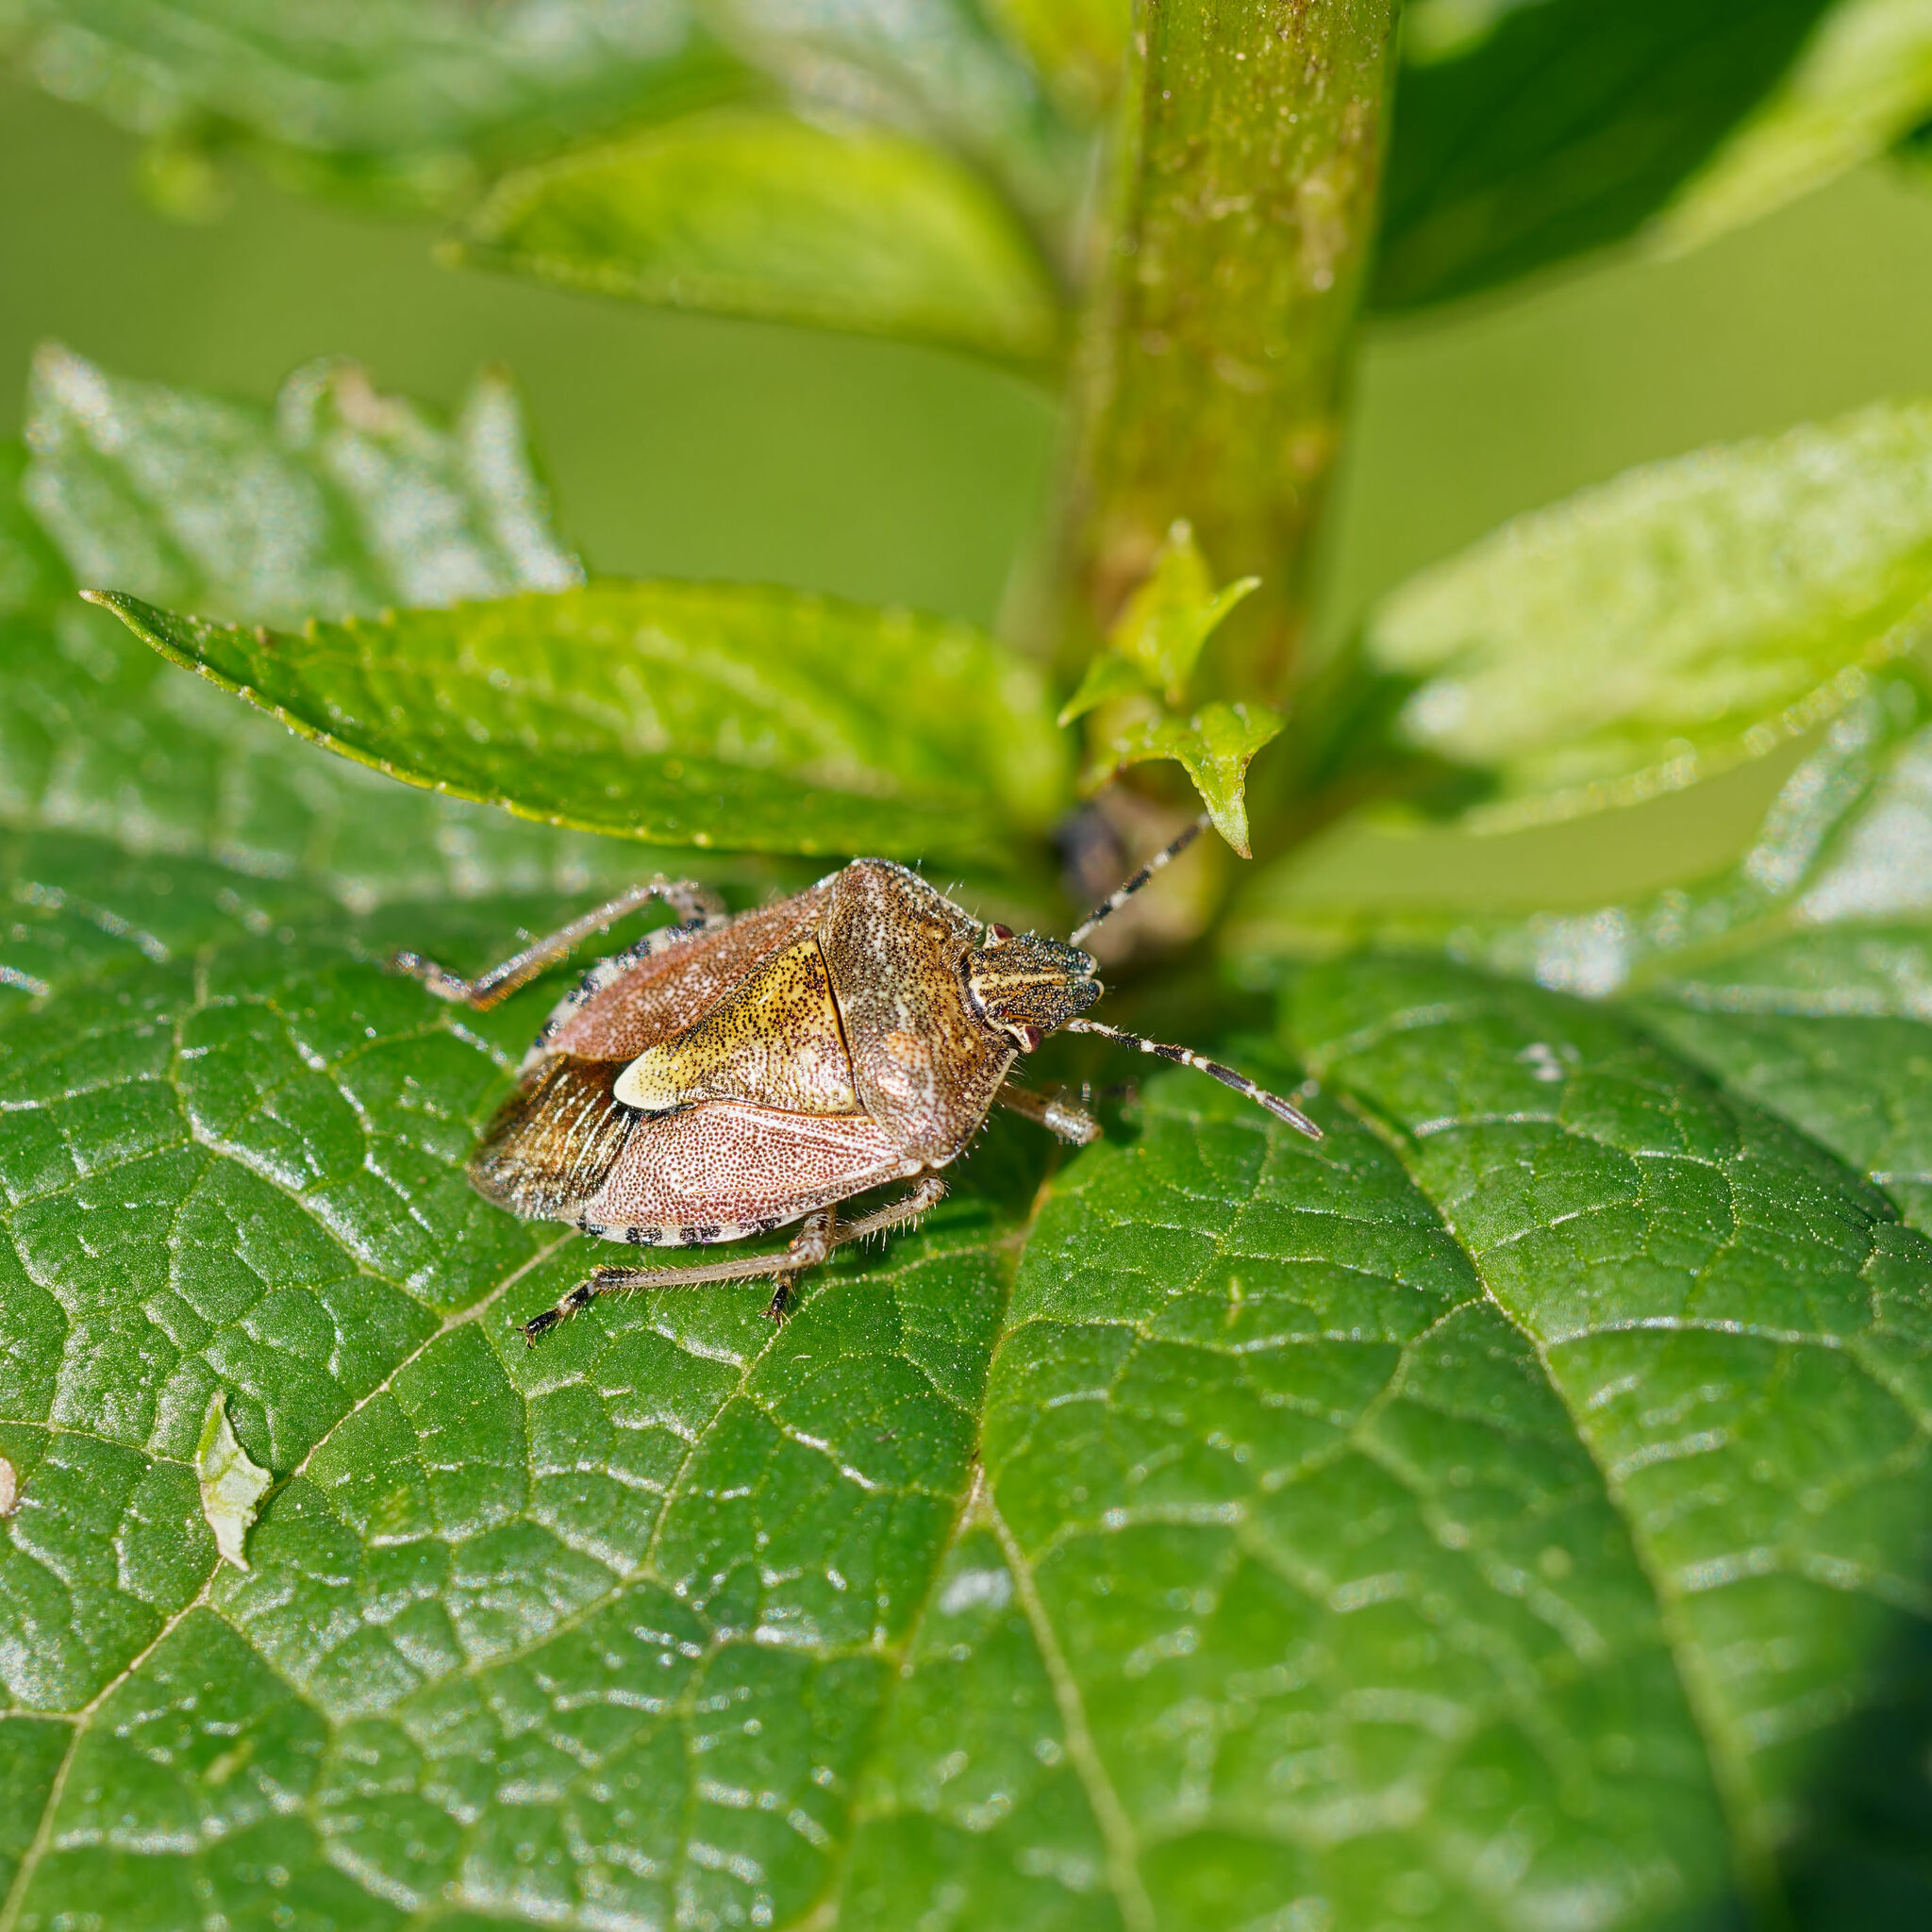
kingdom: Animalia
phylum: Arthropoda
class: Insecta
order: Hemiptera
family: Pentatomidae
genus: Dolycoris
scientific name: Dolycoris baccarum
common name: Sloe bug
